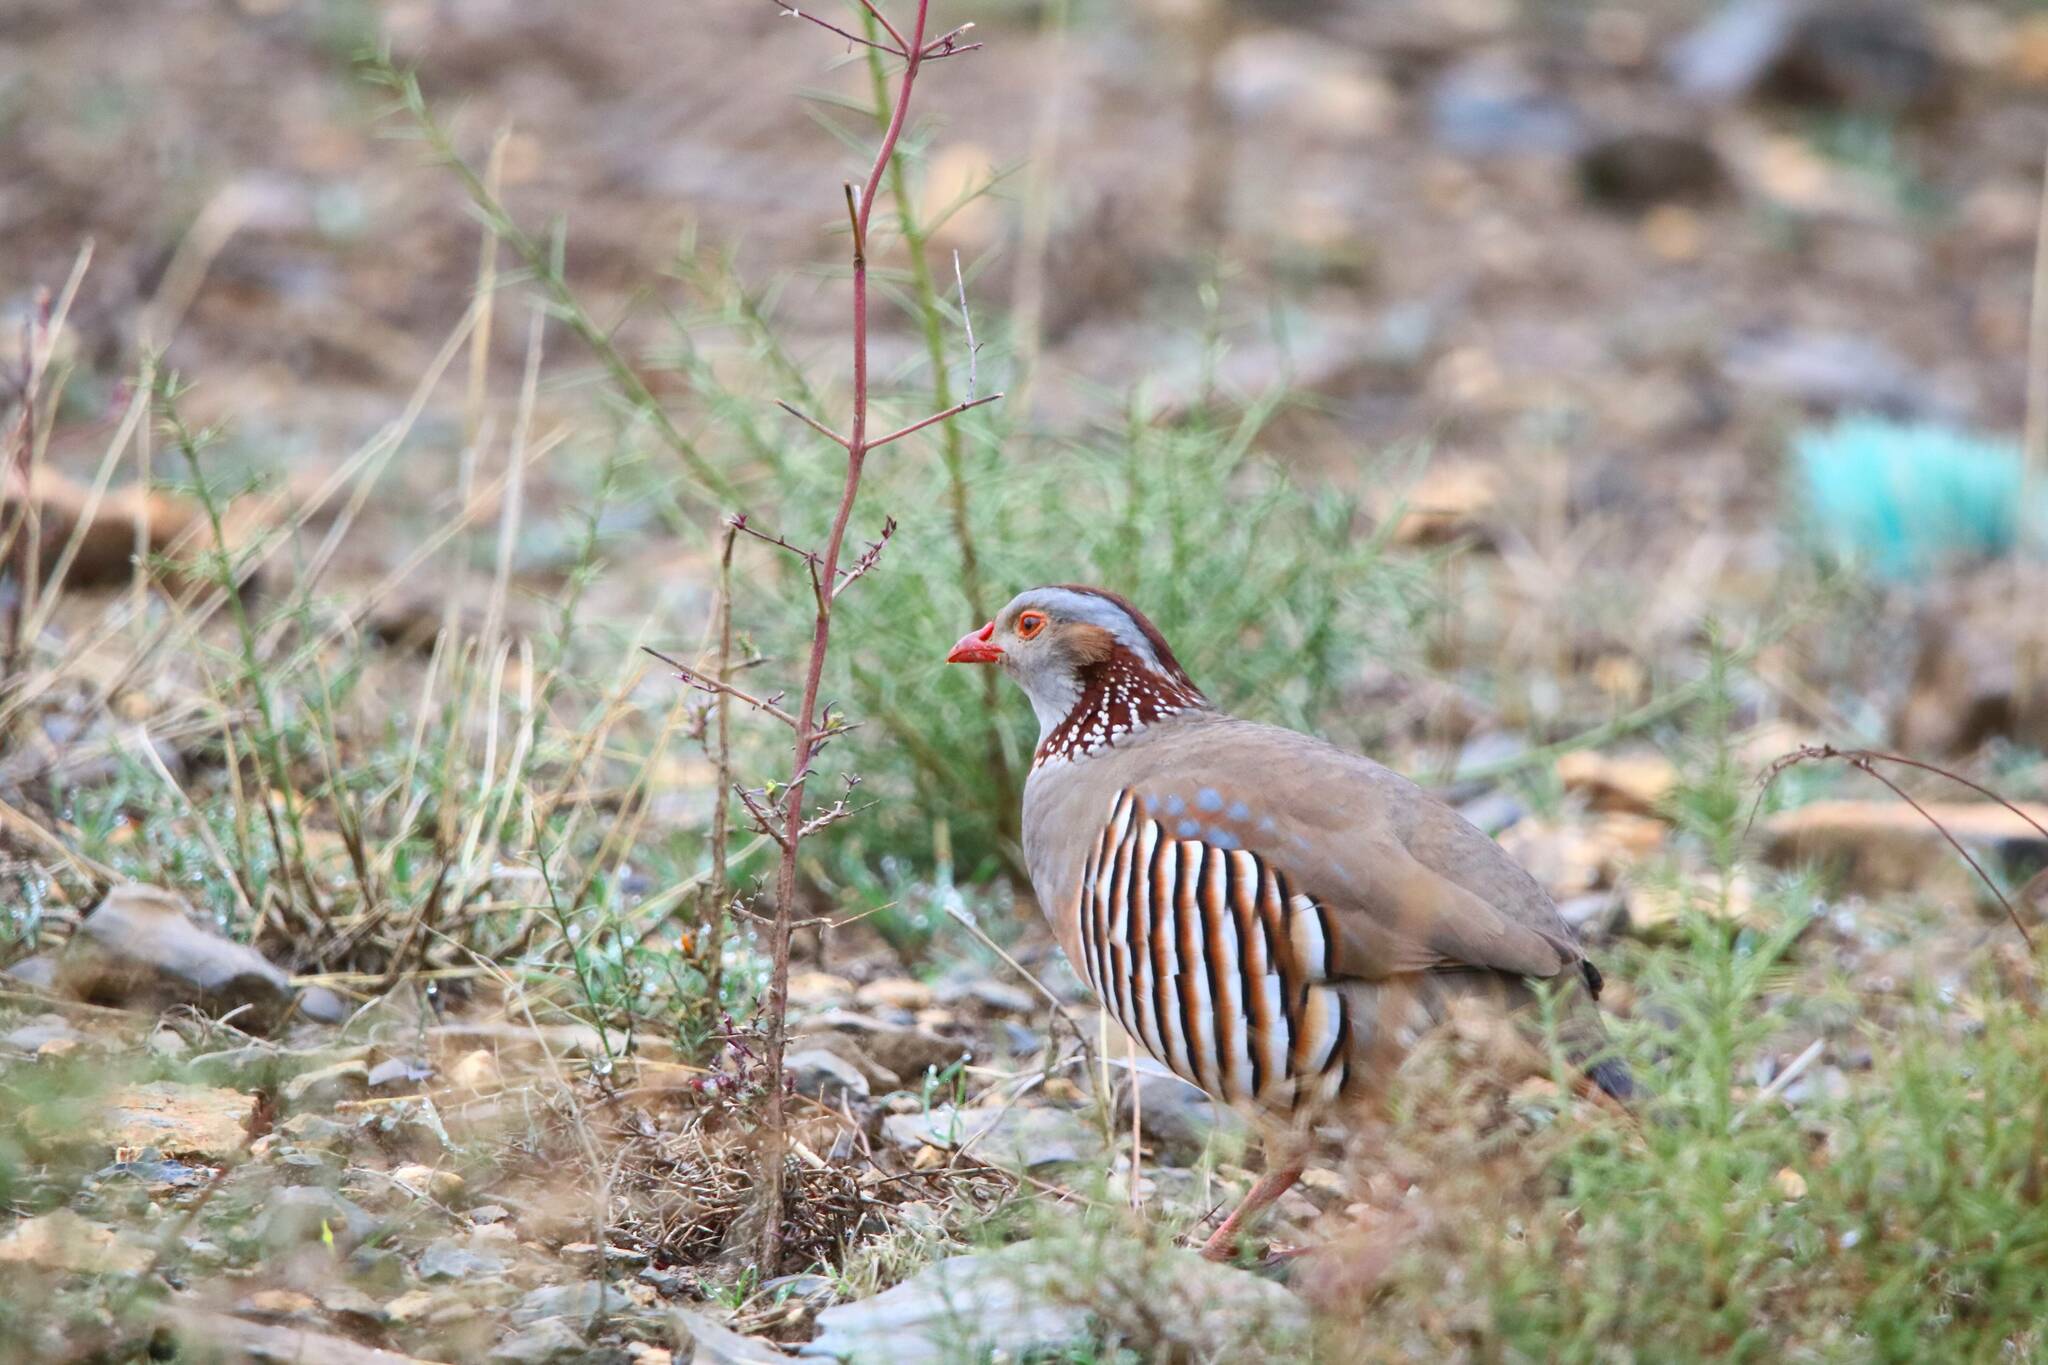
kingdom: Animalia
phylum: Chordata
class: Aves
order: Galliformes
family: Phasianidae
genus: Alectoris
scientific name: Alectoris barbara
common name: Barbary partridge
